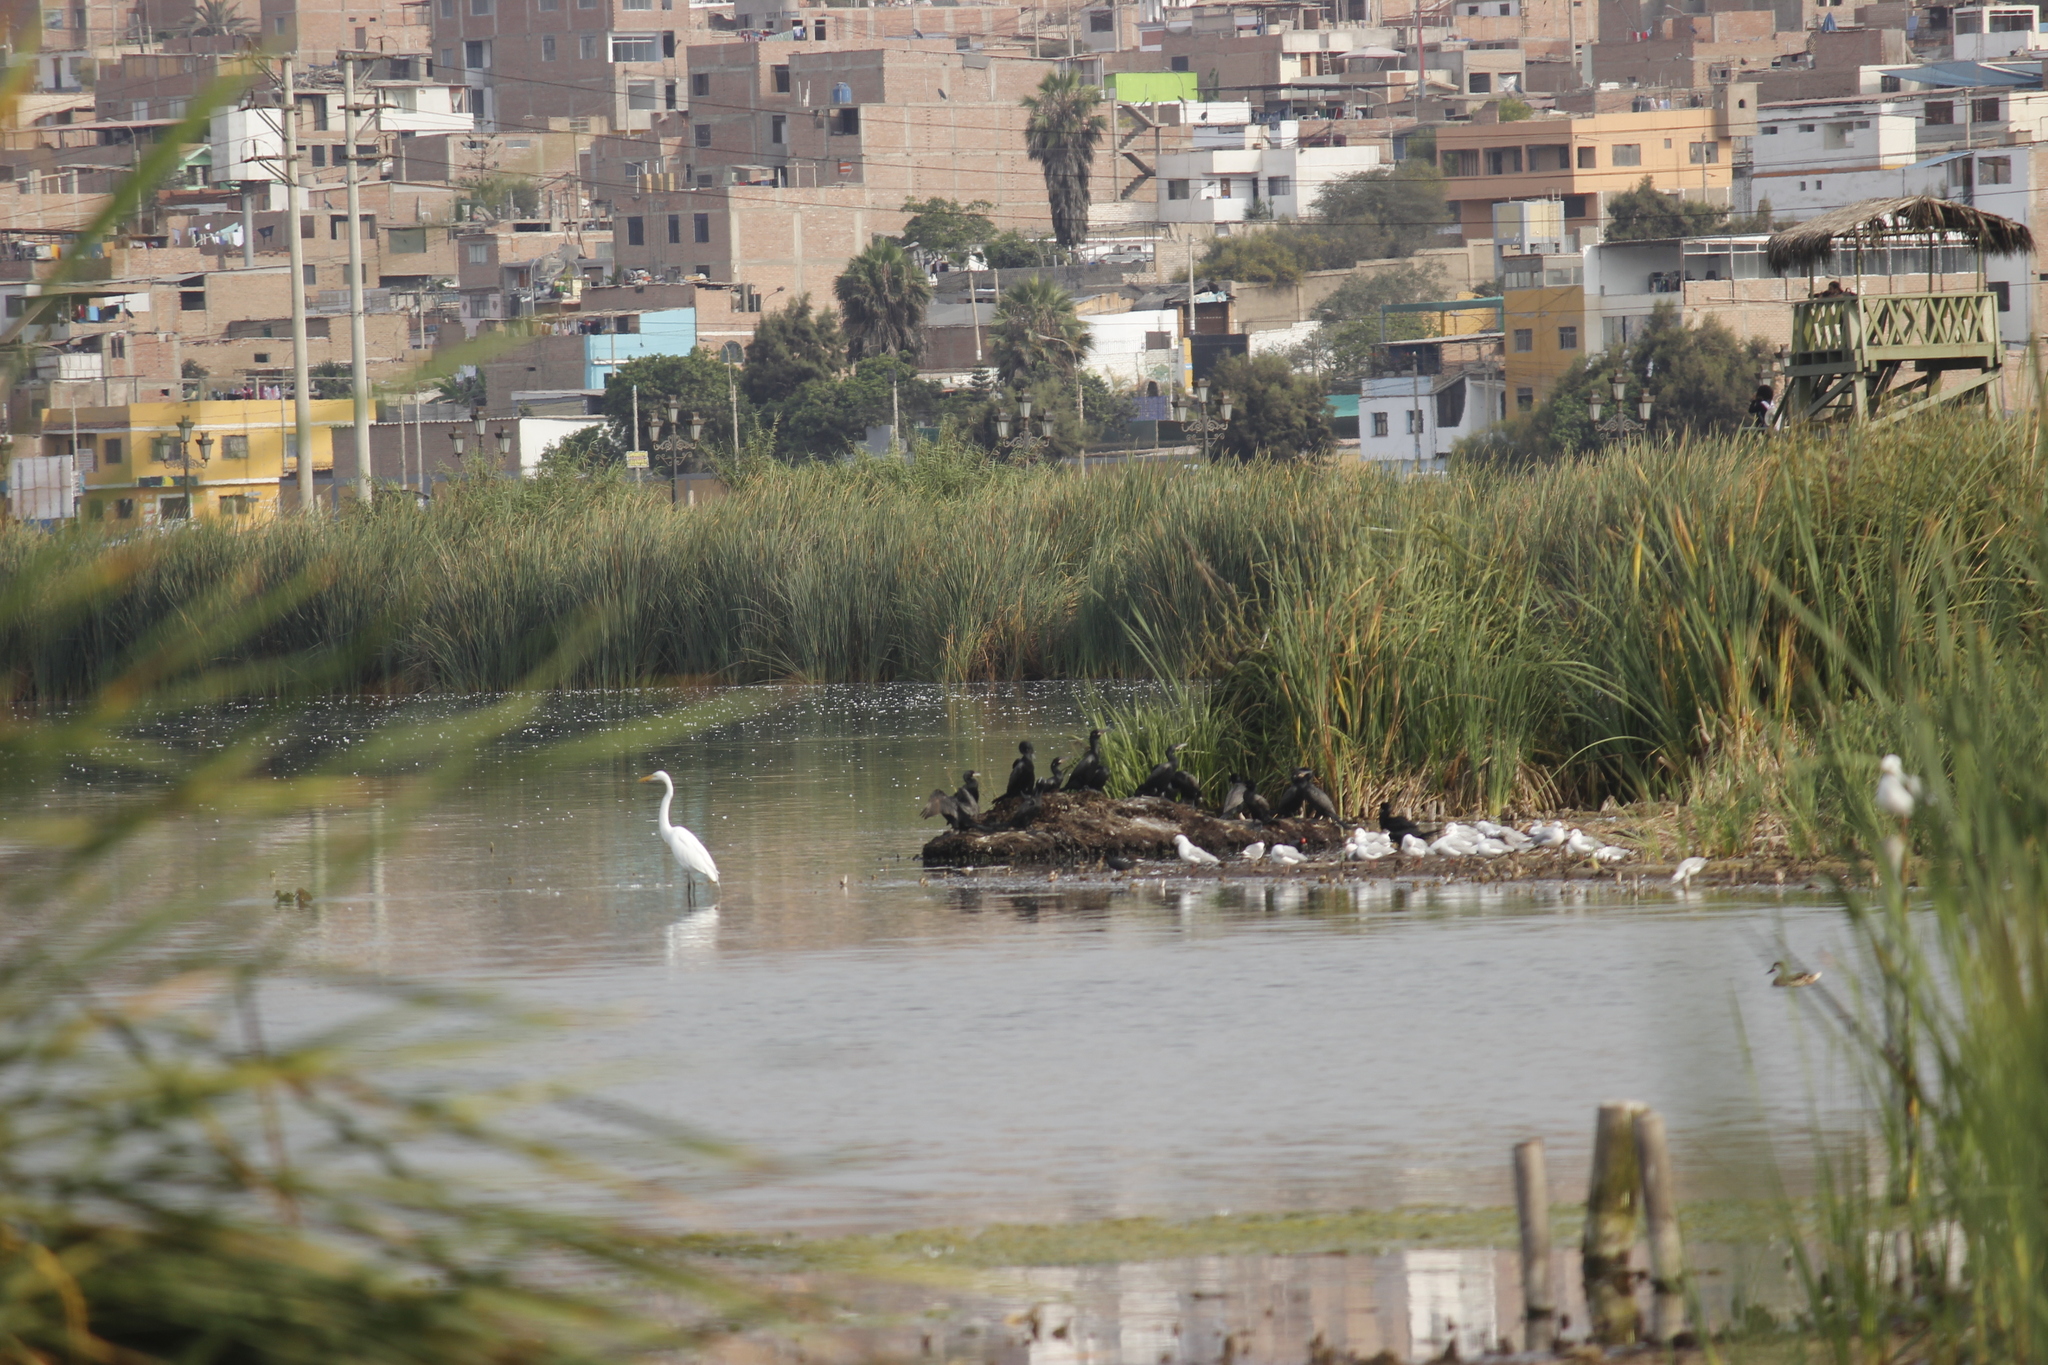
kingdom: Animalia
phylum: Chordata
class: Aves
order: Pelecaniformes
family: Ardeidae
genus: Ardea
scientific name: Ardea alba
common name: Great egret
